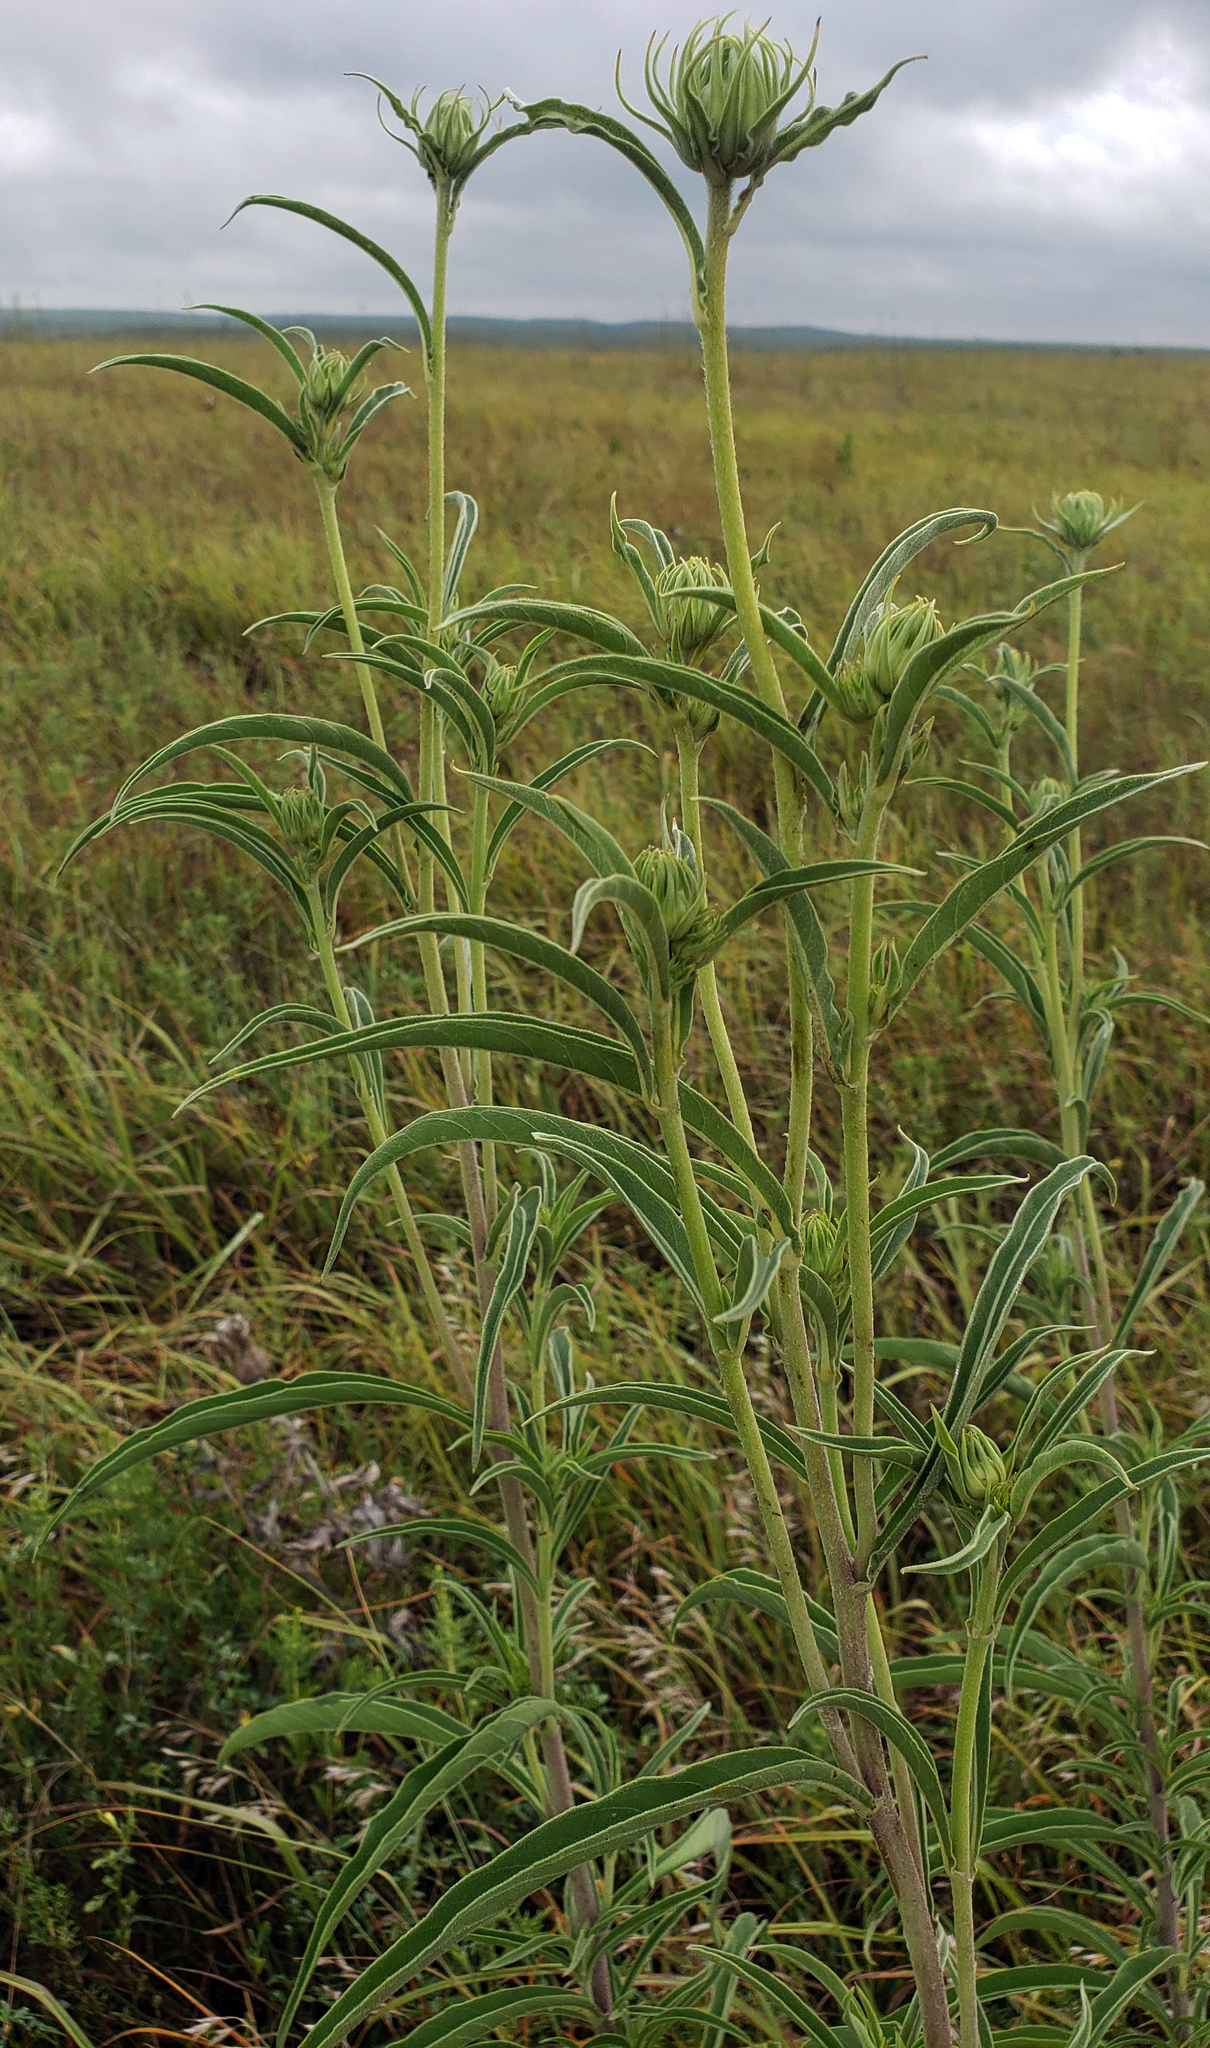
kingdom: Plantae
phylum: Tracheophyta
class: Magnoliopsida
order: Asterales
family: Asteraceae
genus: Helianthus
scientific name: Helianthus maximiliani
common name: Maximilian's sunflower
